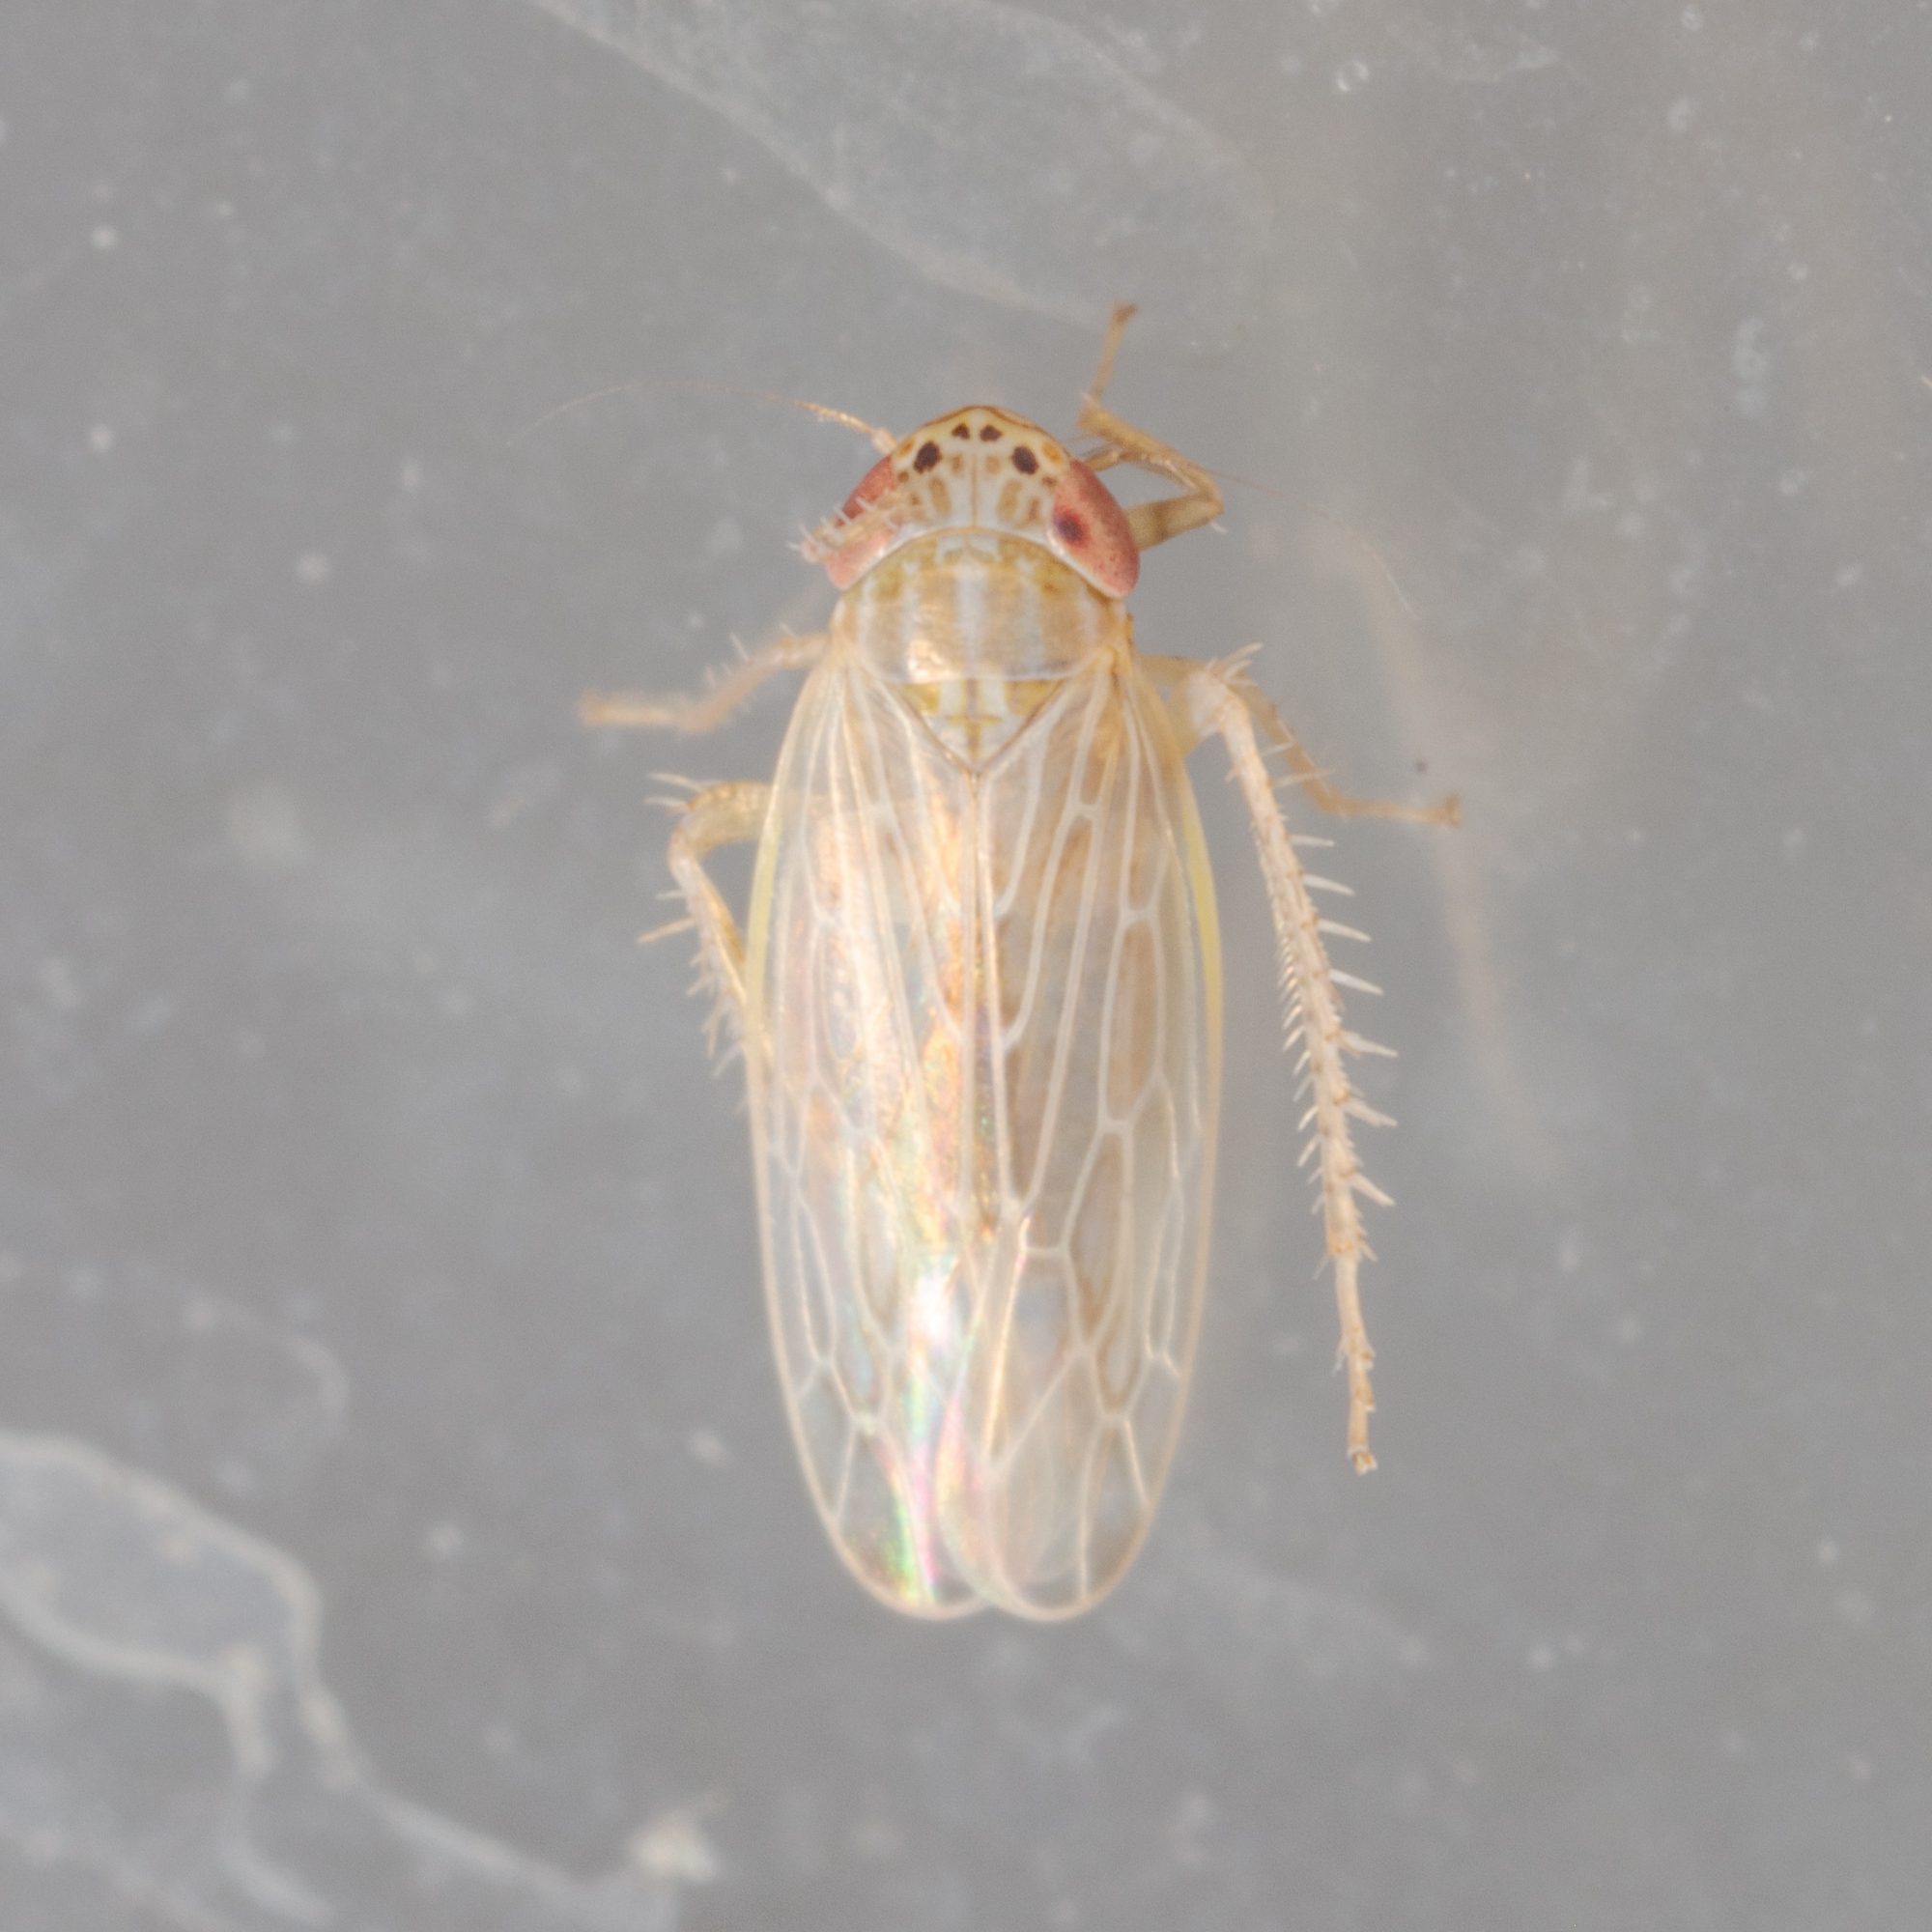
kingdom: Animalia
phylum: Arthropoda
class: Insecta
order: Hemiptera
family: Cicadellidae
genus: Graminella
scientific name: Graminella sonora
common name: Lesser lawn leafhopper
